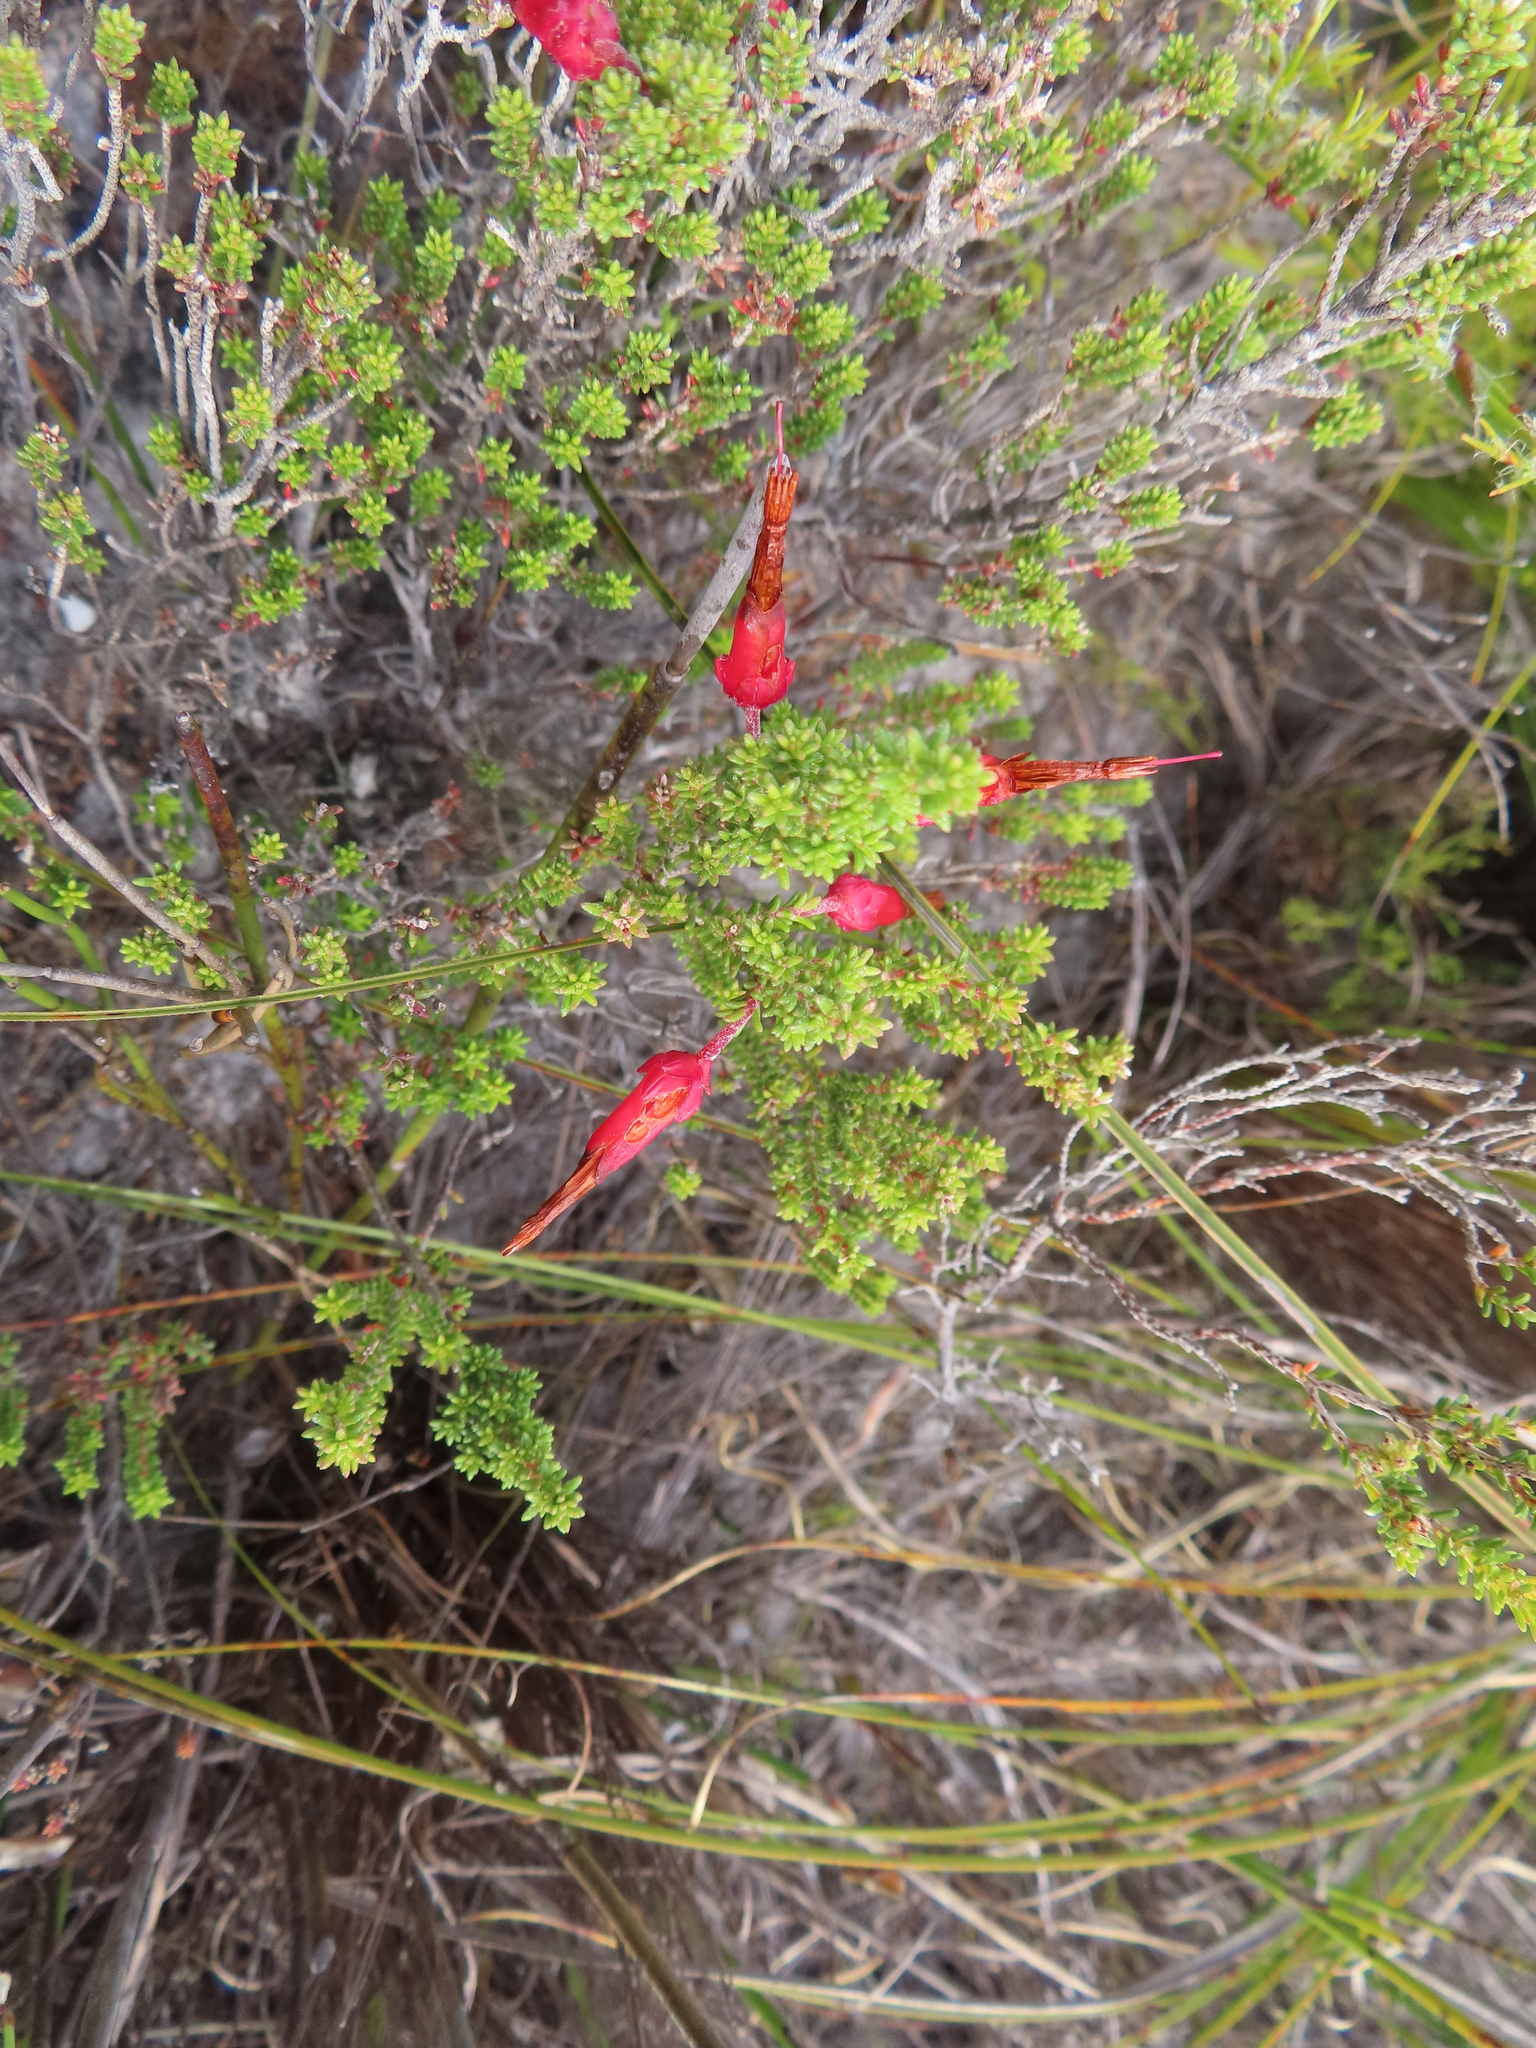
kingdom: Plantae
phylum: Tracheophyta
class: Magnoliopsida
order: Ericales
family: Ericaceae
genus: Erica
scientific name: Erica monadelphia
